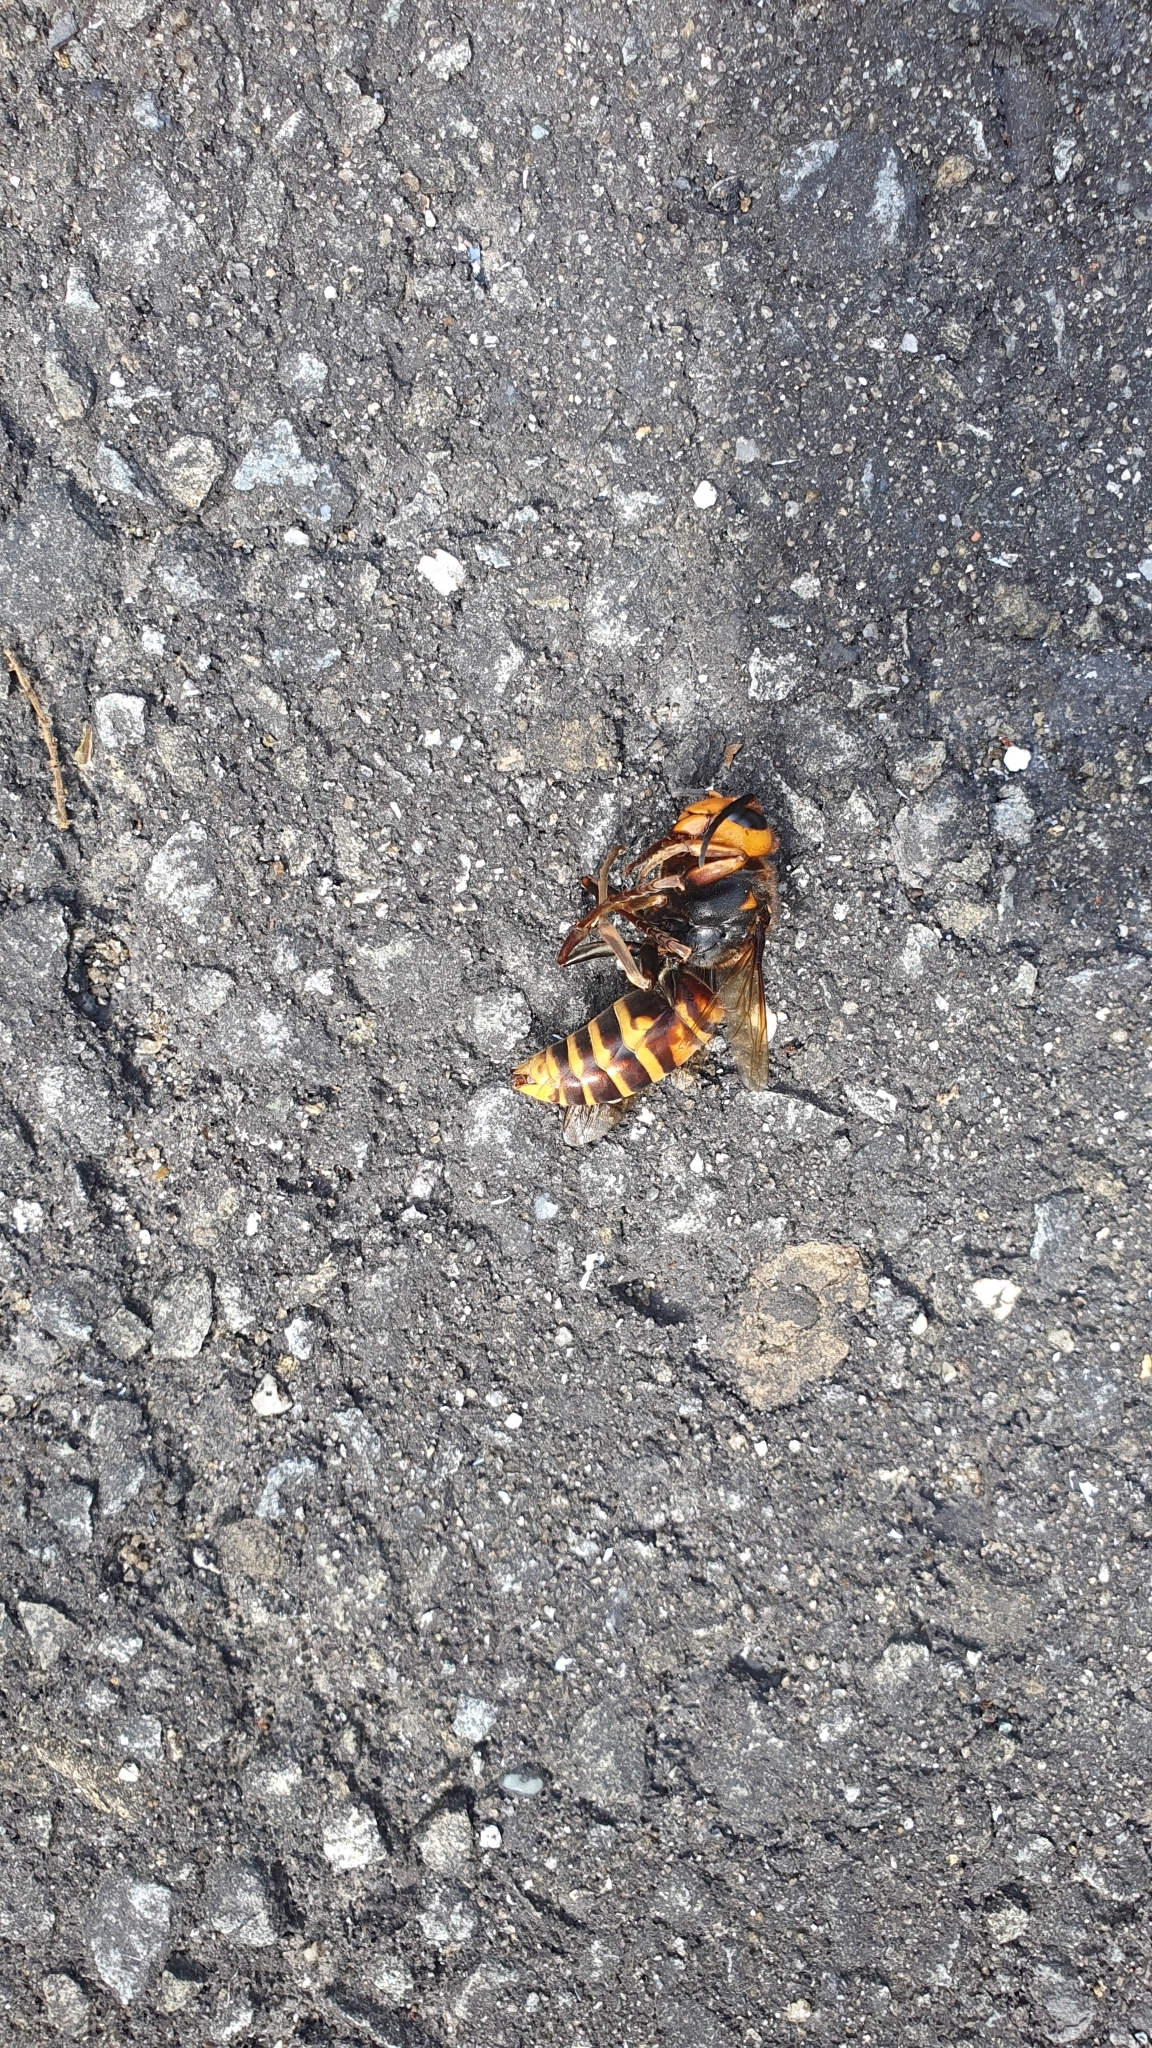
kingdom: Animalia
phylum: Arthropoda
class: Insecta
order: Hymenoptera
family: Vespidae
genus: Vespa
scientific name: Vespa mandarinia
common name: Asian giant hornet
